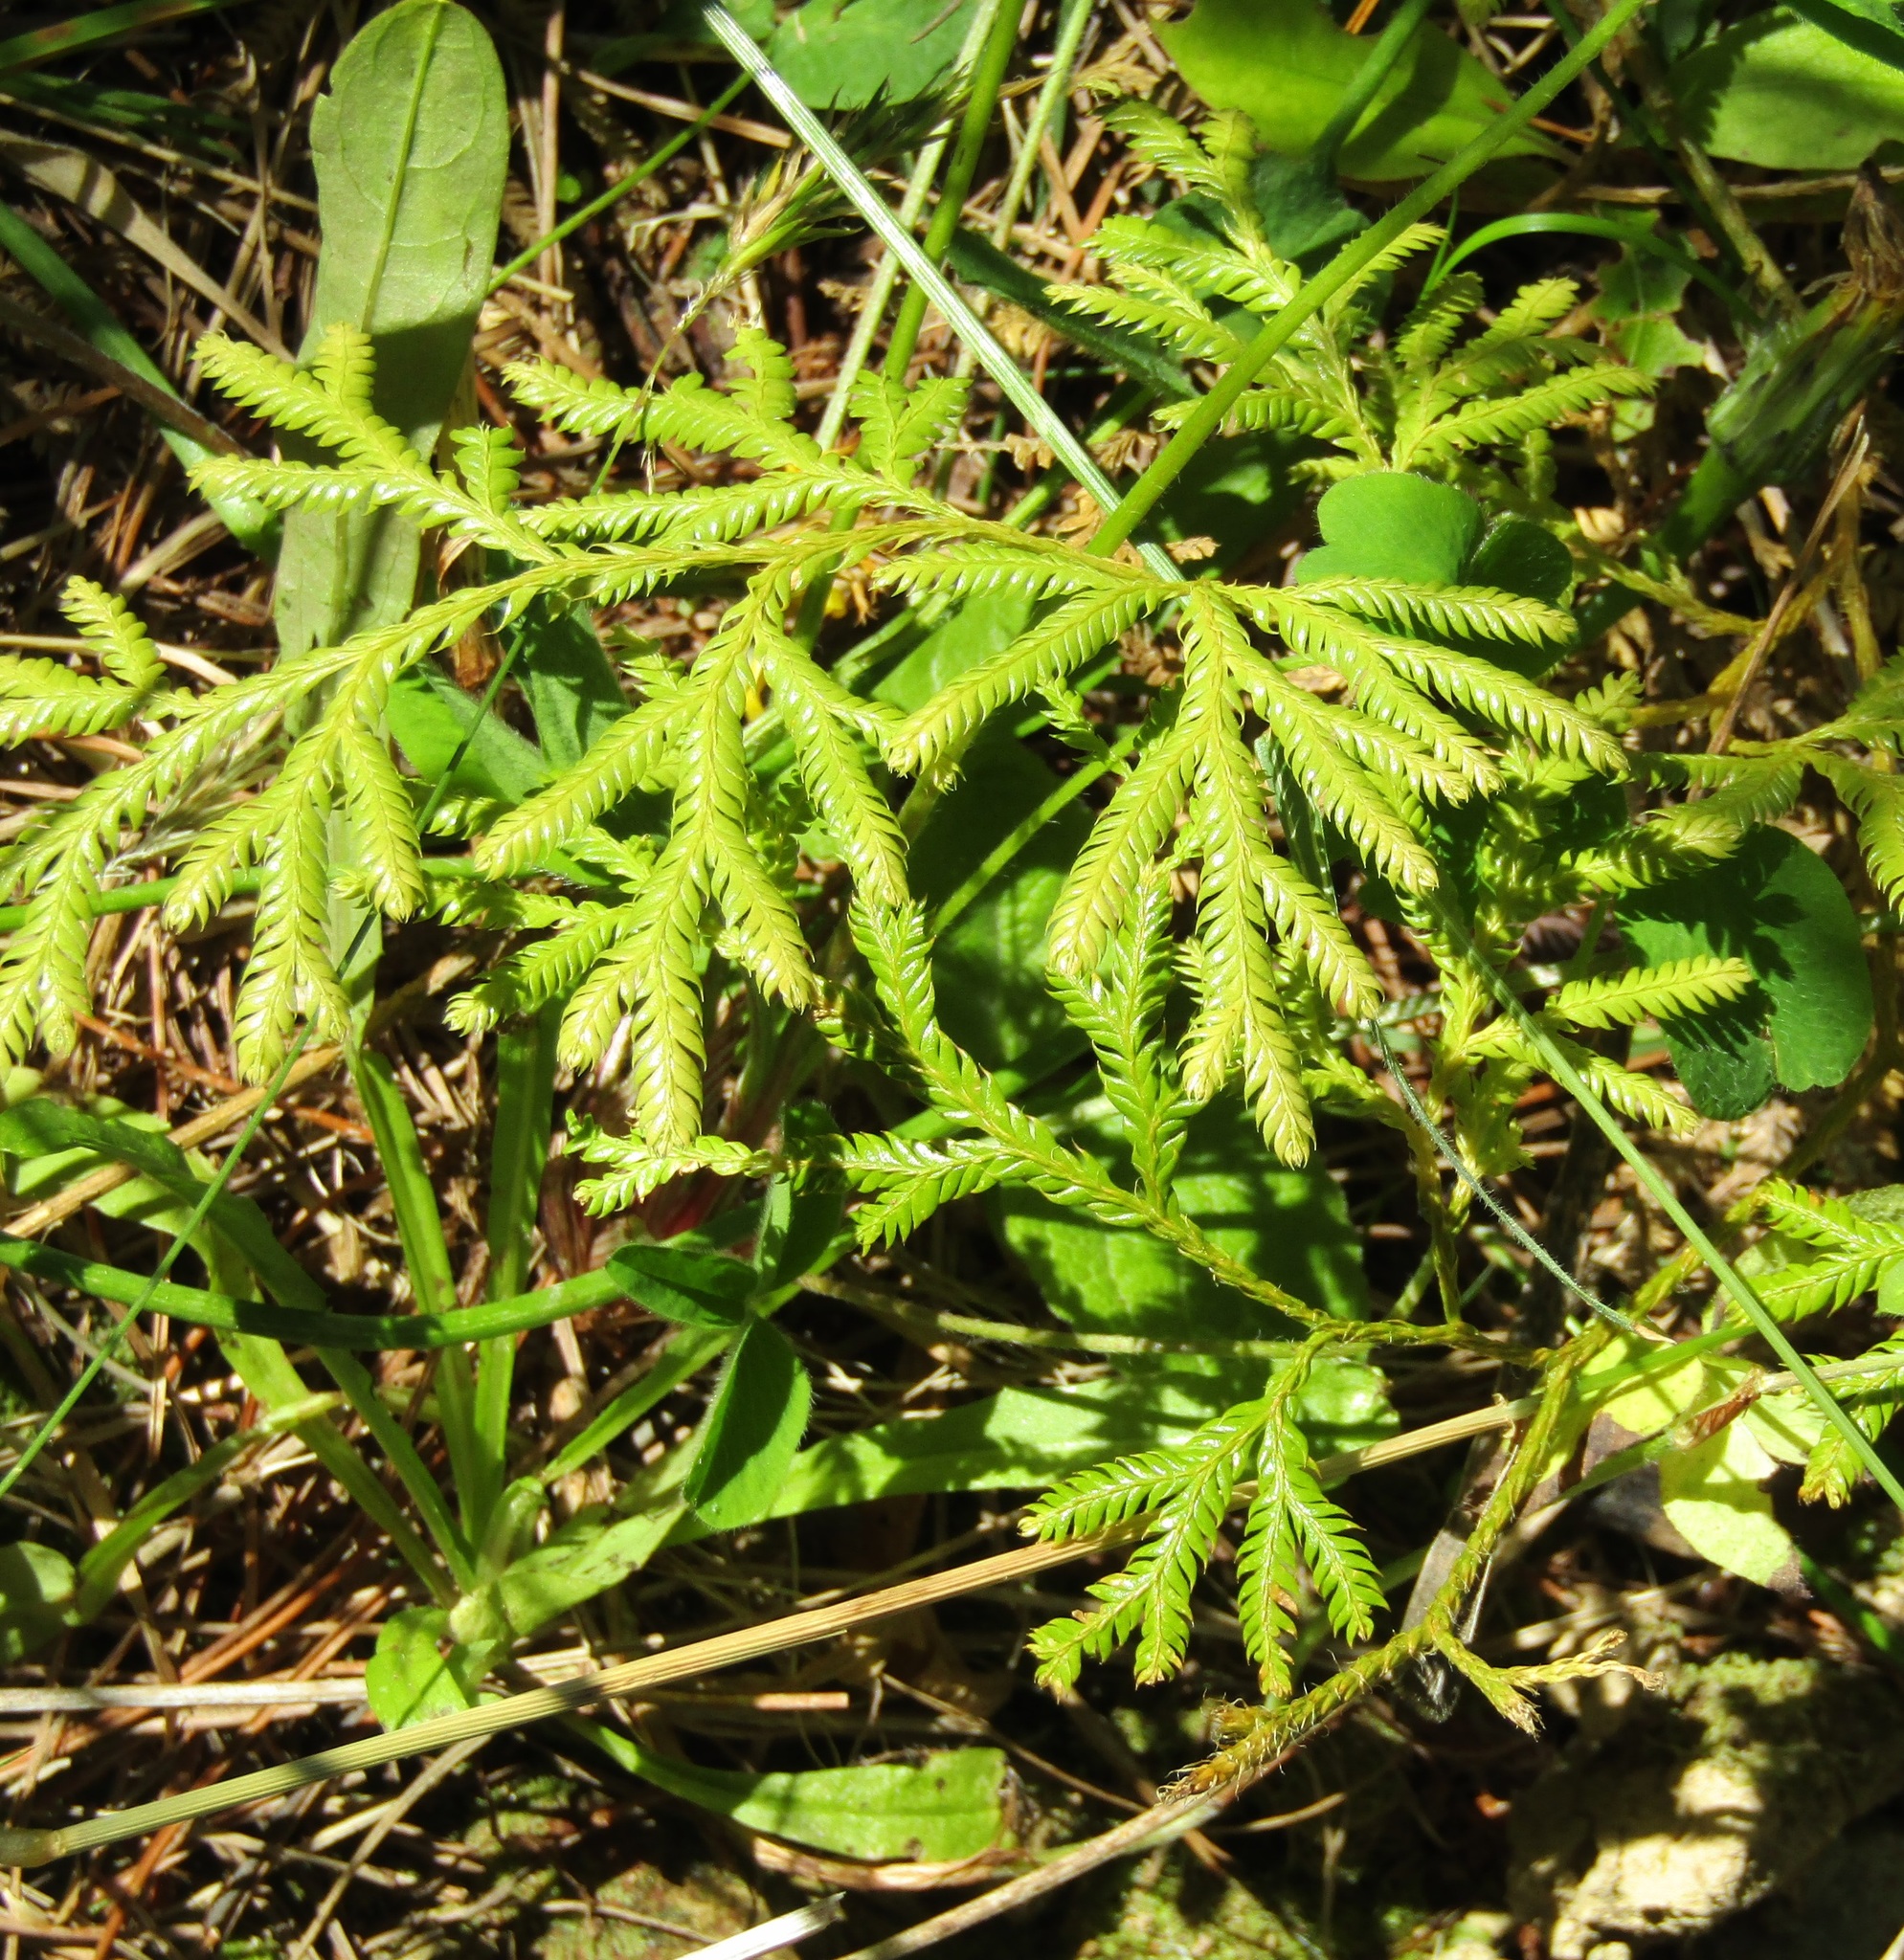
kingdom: Plantae
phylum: Tracheophyta
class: Lycopodiopsida
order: Lycopodiales
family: Lycopodiaceae
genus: Lycopodium
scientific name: Lycopodium volubile
